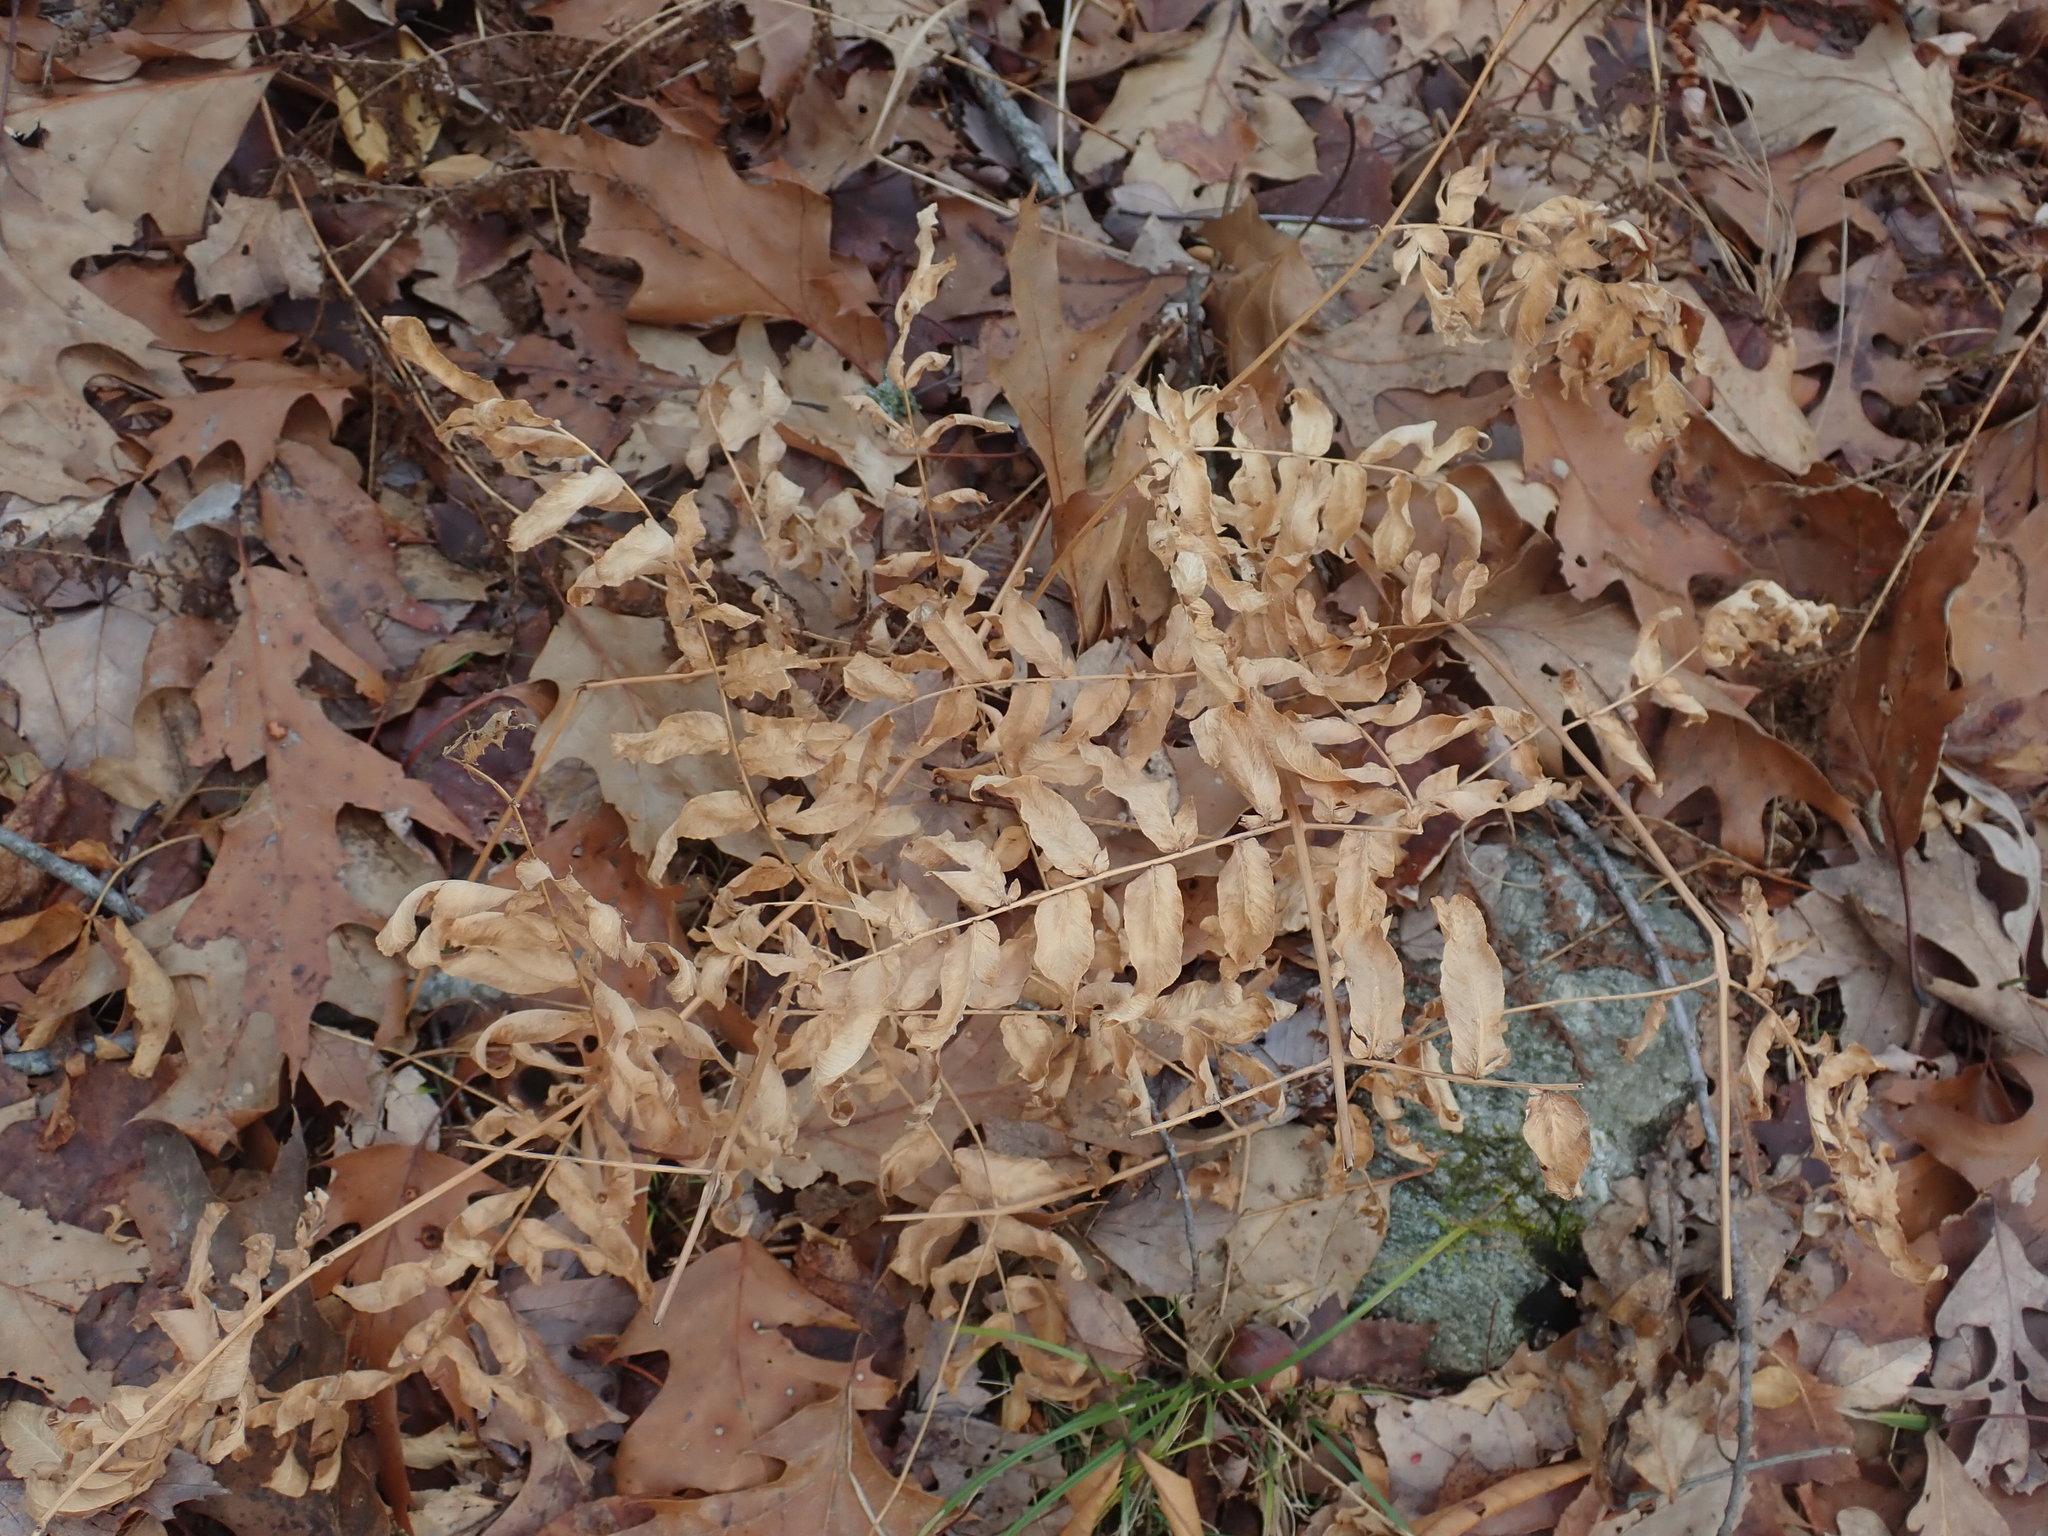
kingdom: Plantae
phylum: Tracheophyta
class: Polypodiopsida
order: Osmundales
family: Osmundaceae
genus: Osmunda
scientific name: Osmunda spectabilis
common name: American royal fern
